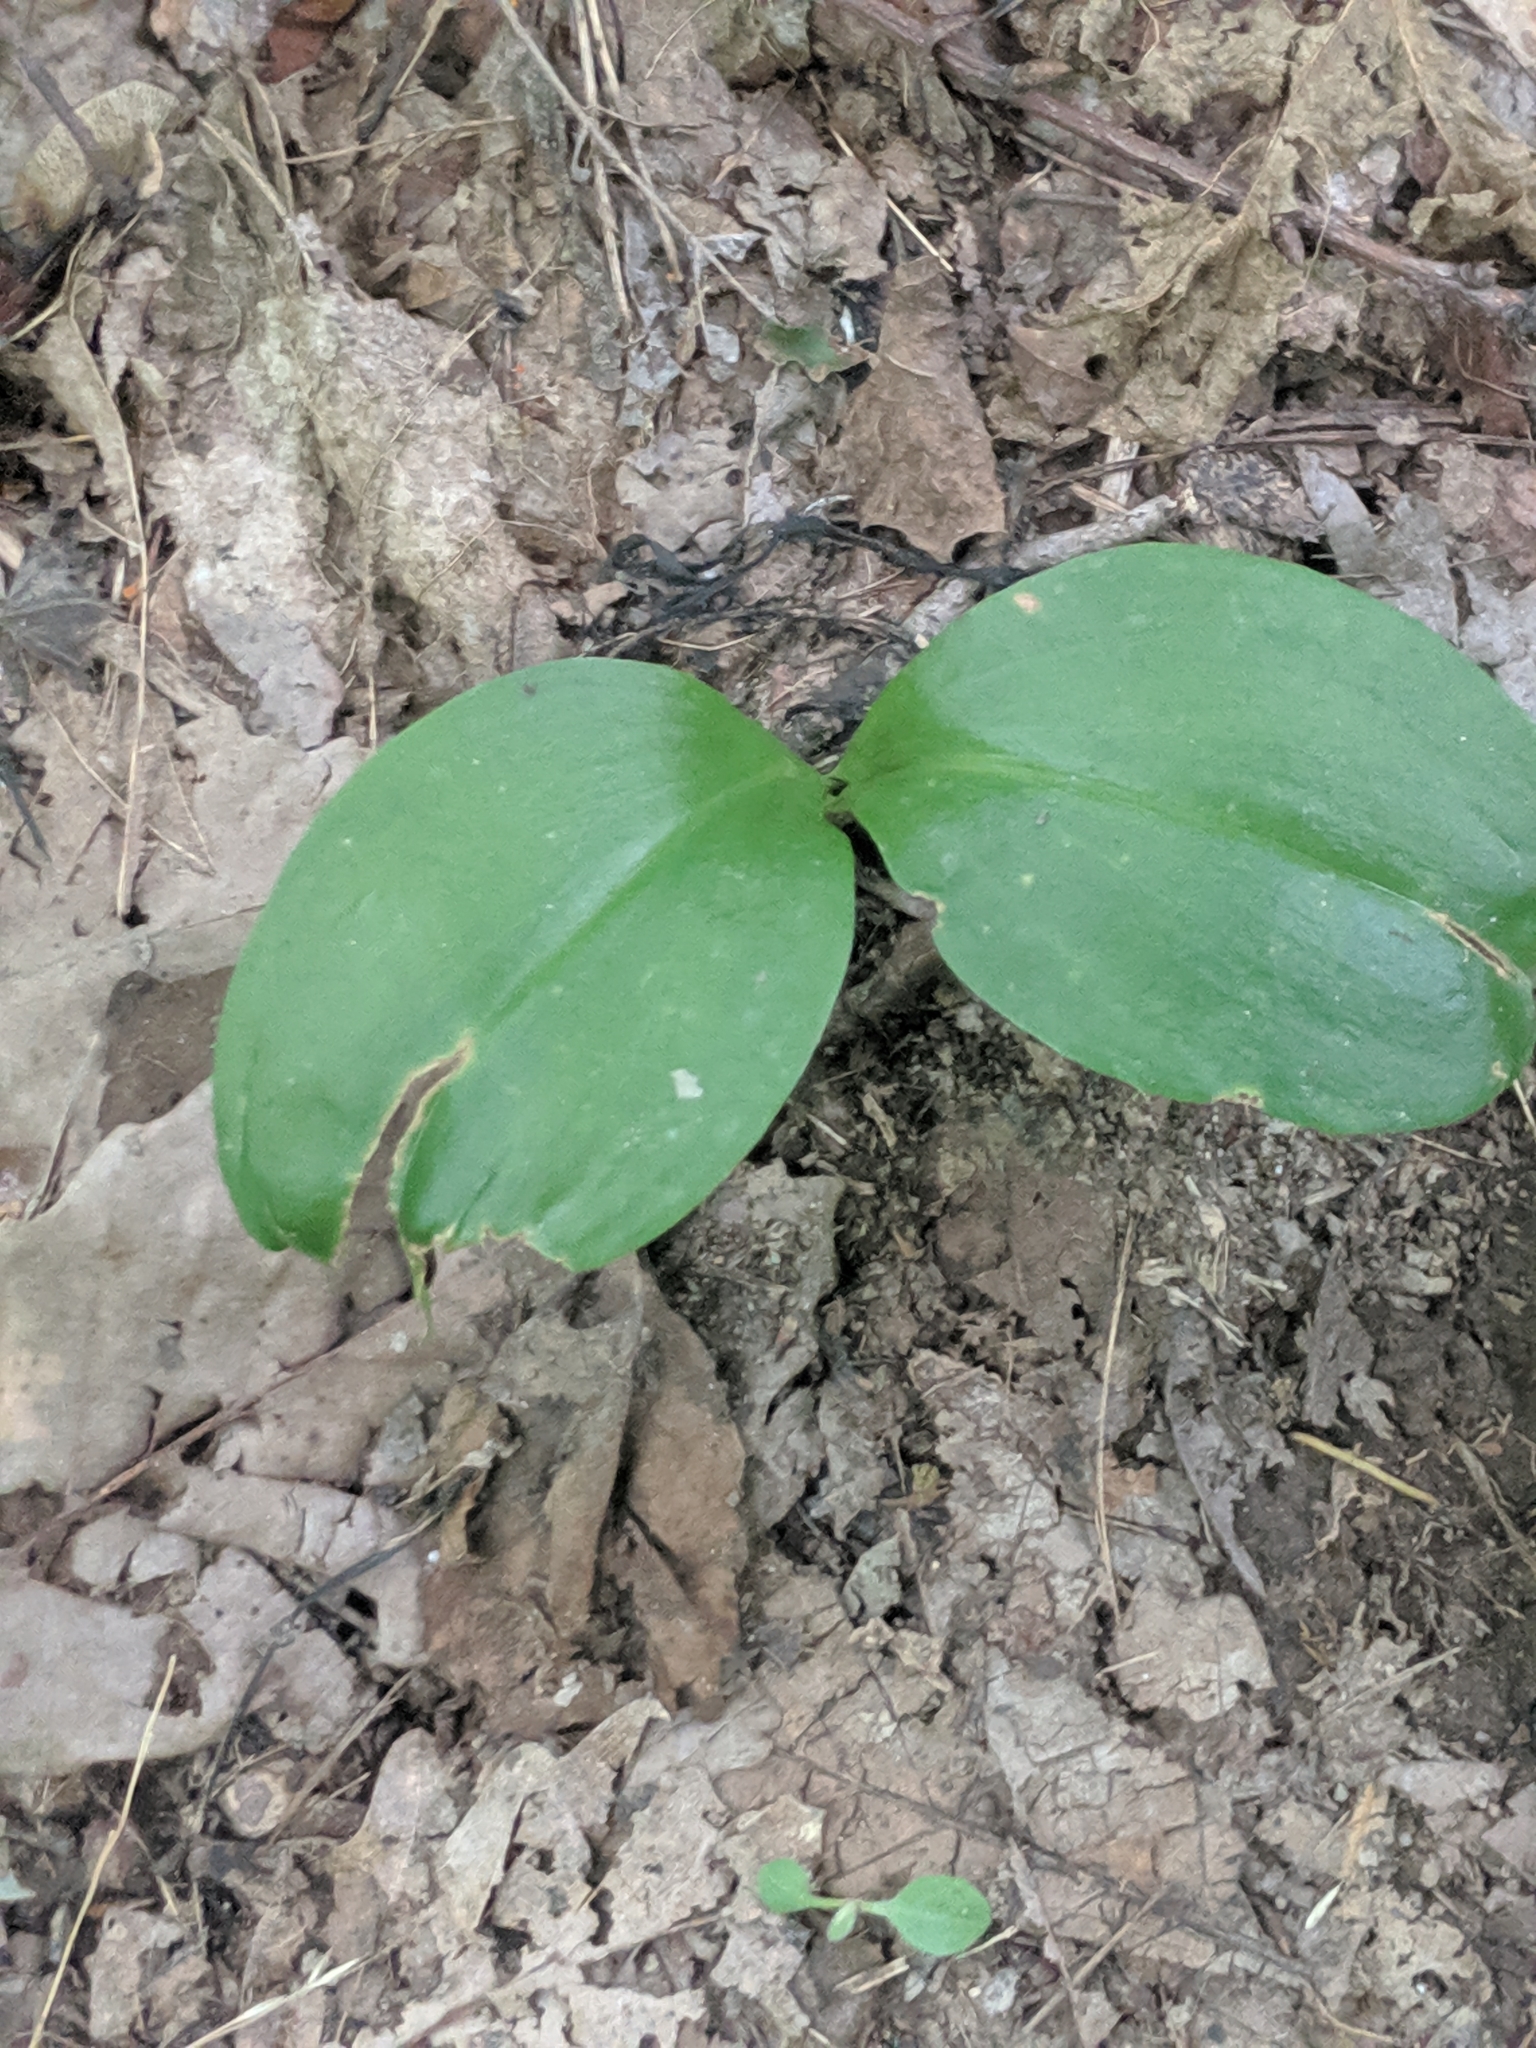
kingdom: Plantae
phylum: Tracheophyta
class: Liliopsida
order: Asparagales
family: Orchidaceae
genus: Galearis
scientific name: Galearis spectabilis
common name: Purple-hooded orchis
